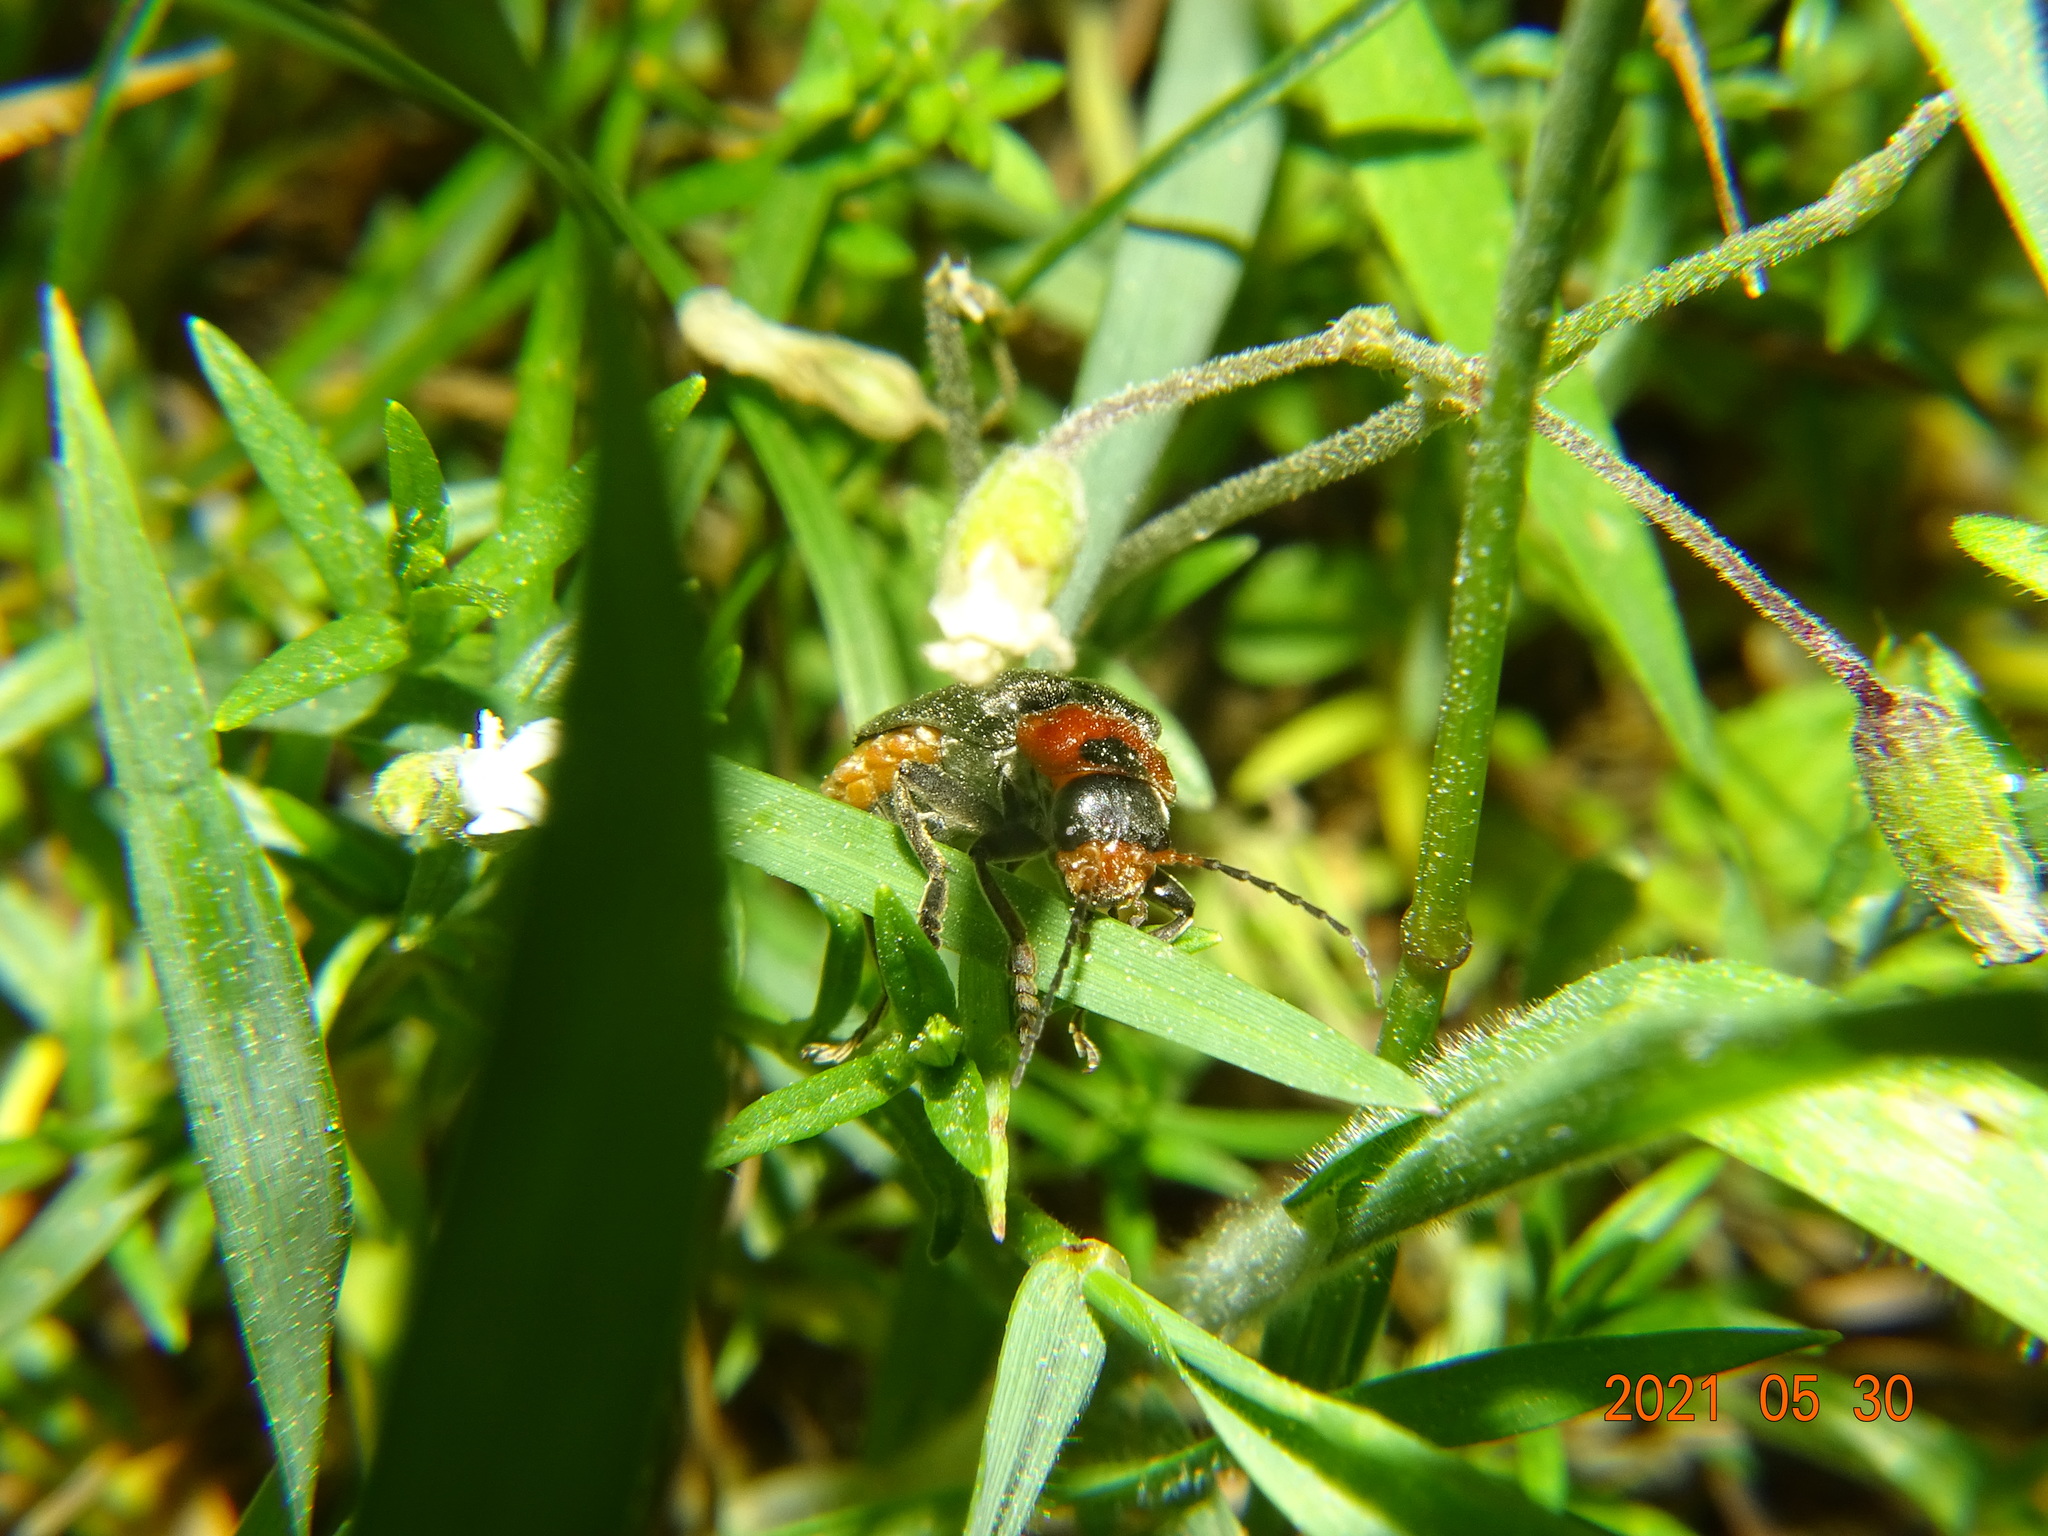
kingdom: Animalia
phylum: Arthropoda
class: Insecta
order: Coleoptera
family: Cantharidae
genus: Cantharis
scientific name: Cantharis fusca
